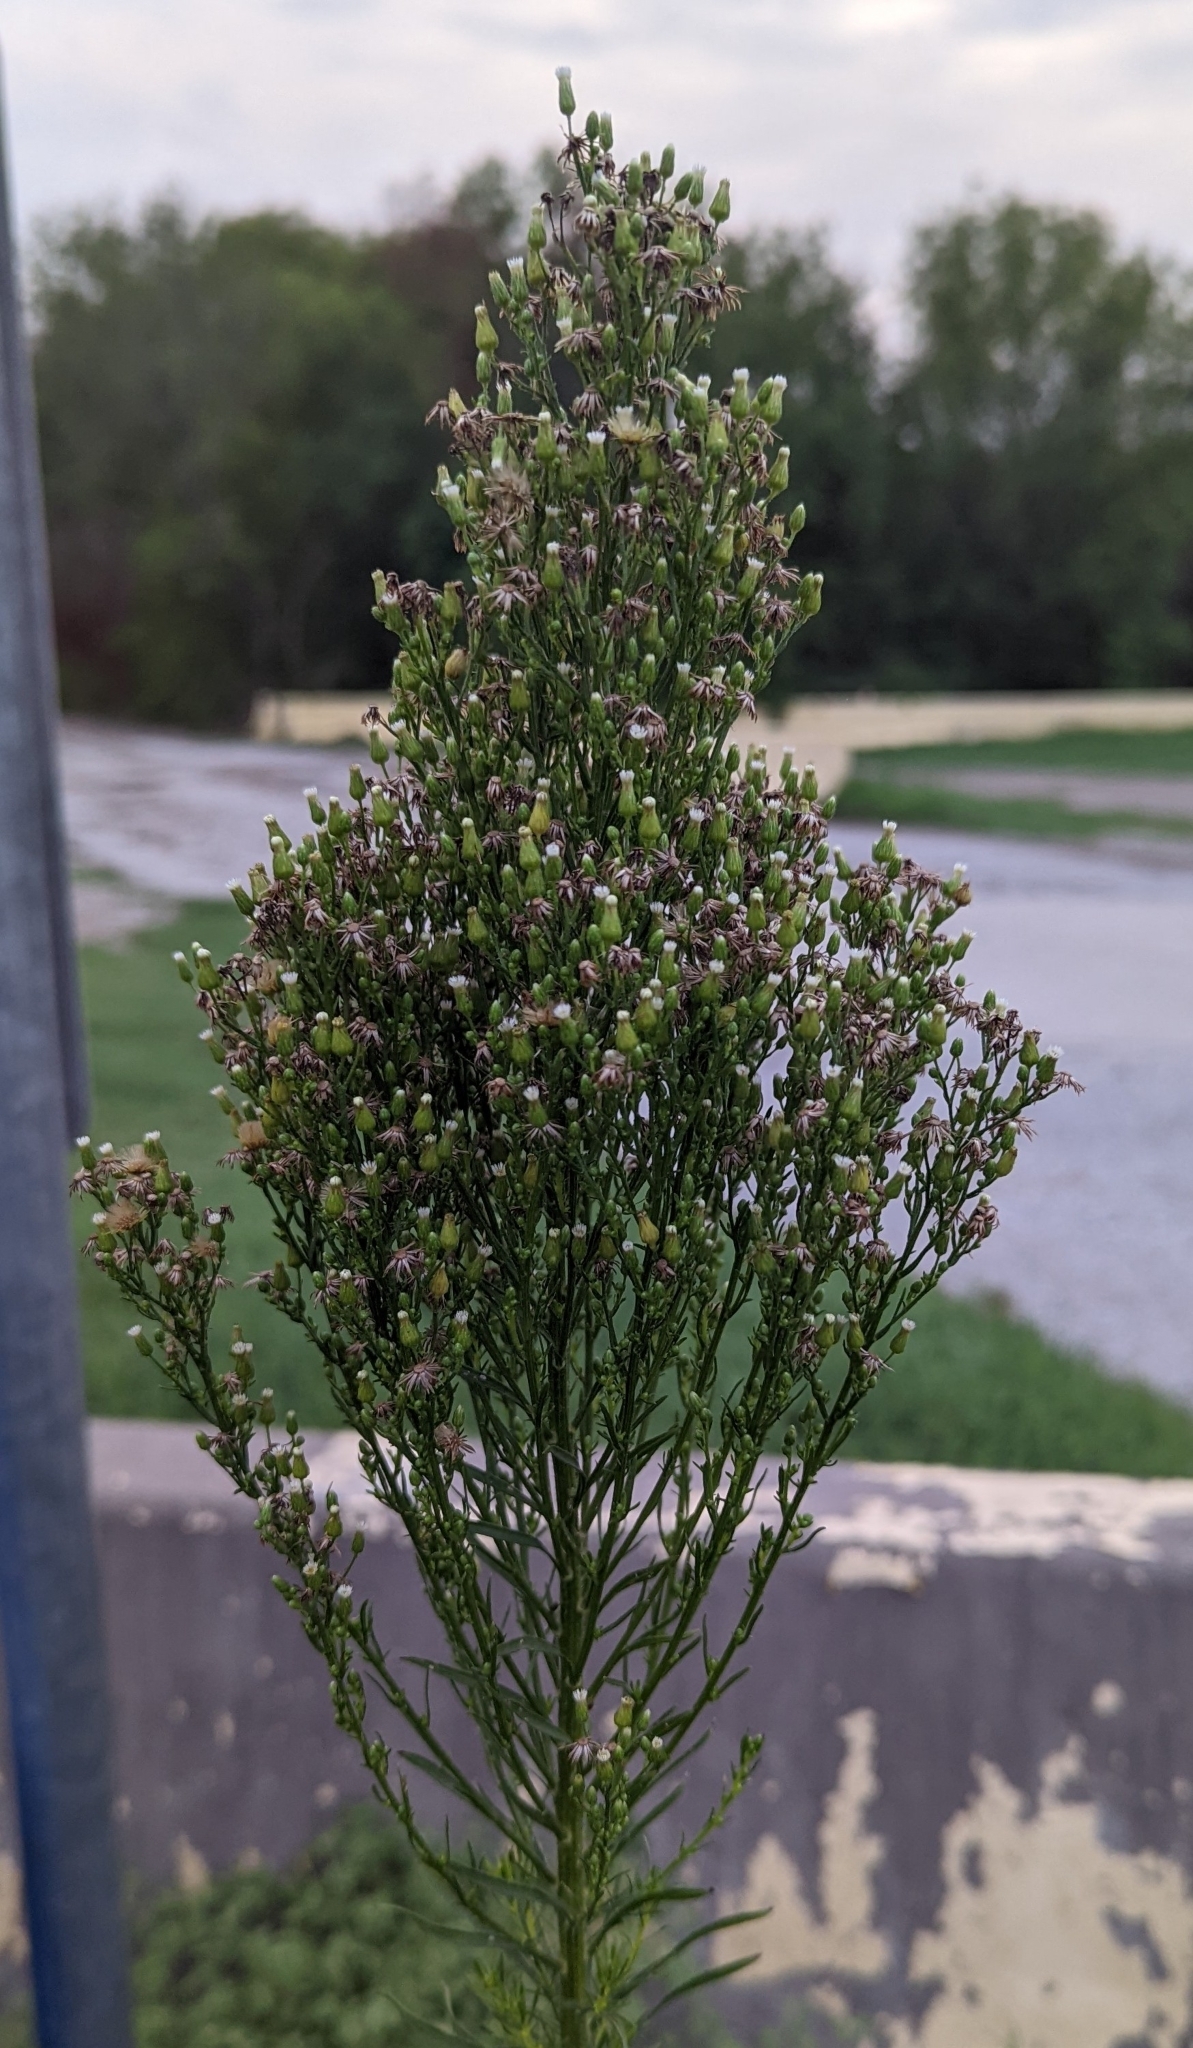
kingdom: Plantae
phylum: Tracheophyta
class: Magnoliopsida
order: Asterales
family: Asteraceae
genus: Erigeron
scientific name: Erigeron canadensis
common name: Canadian fleabane
